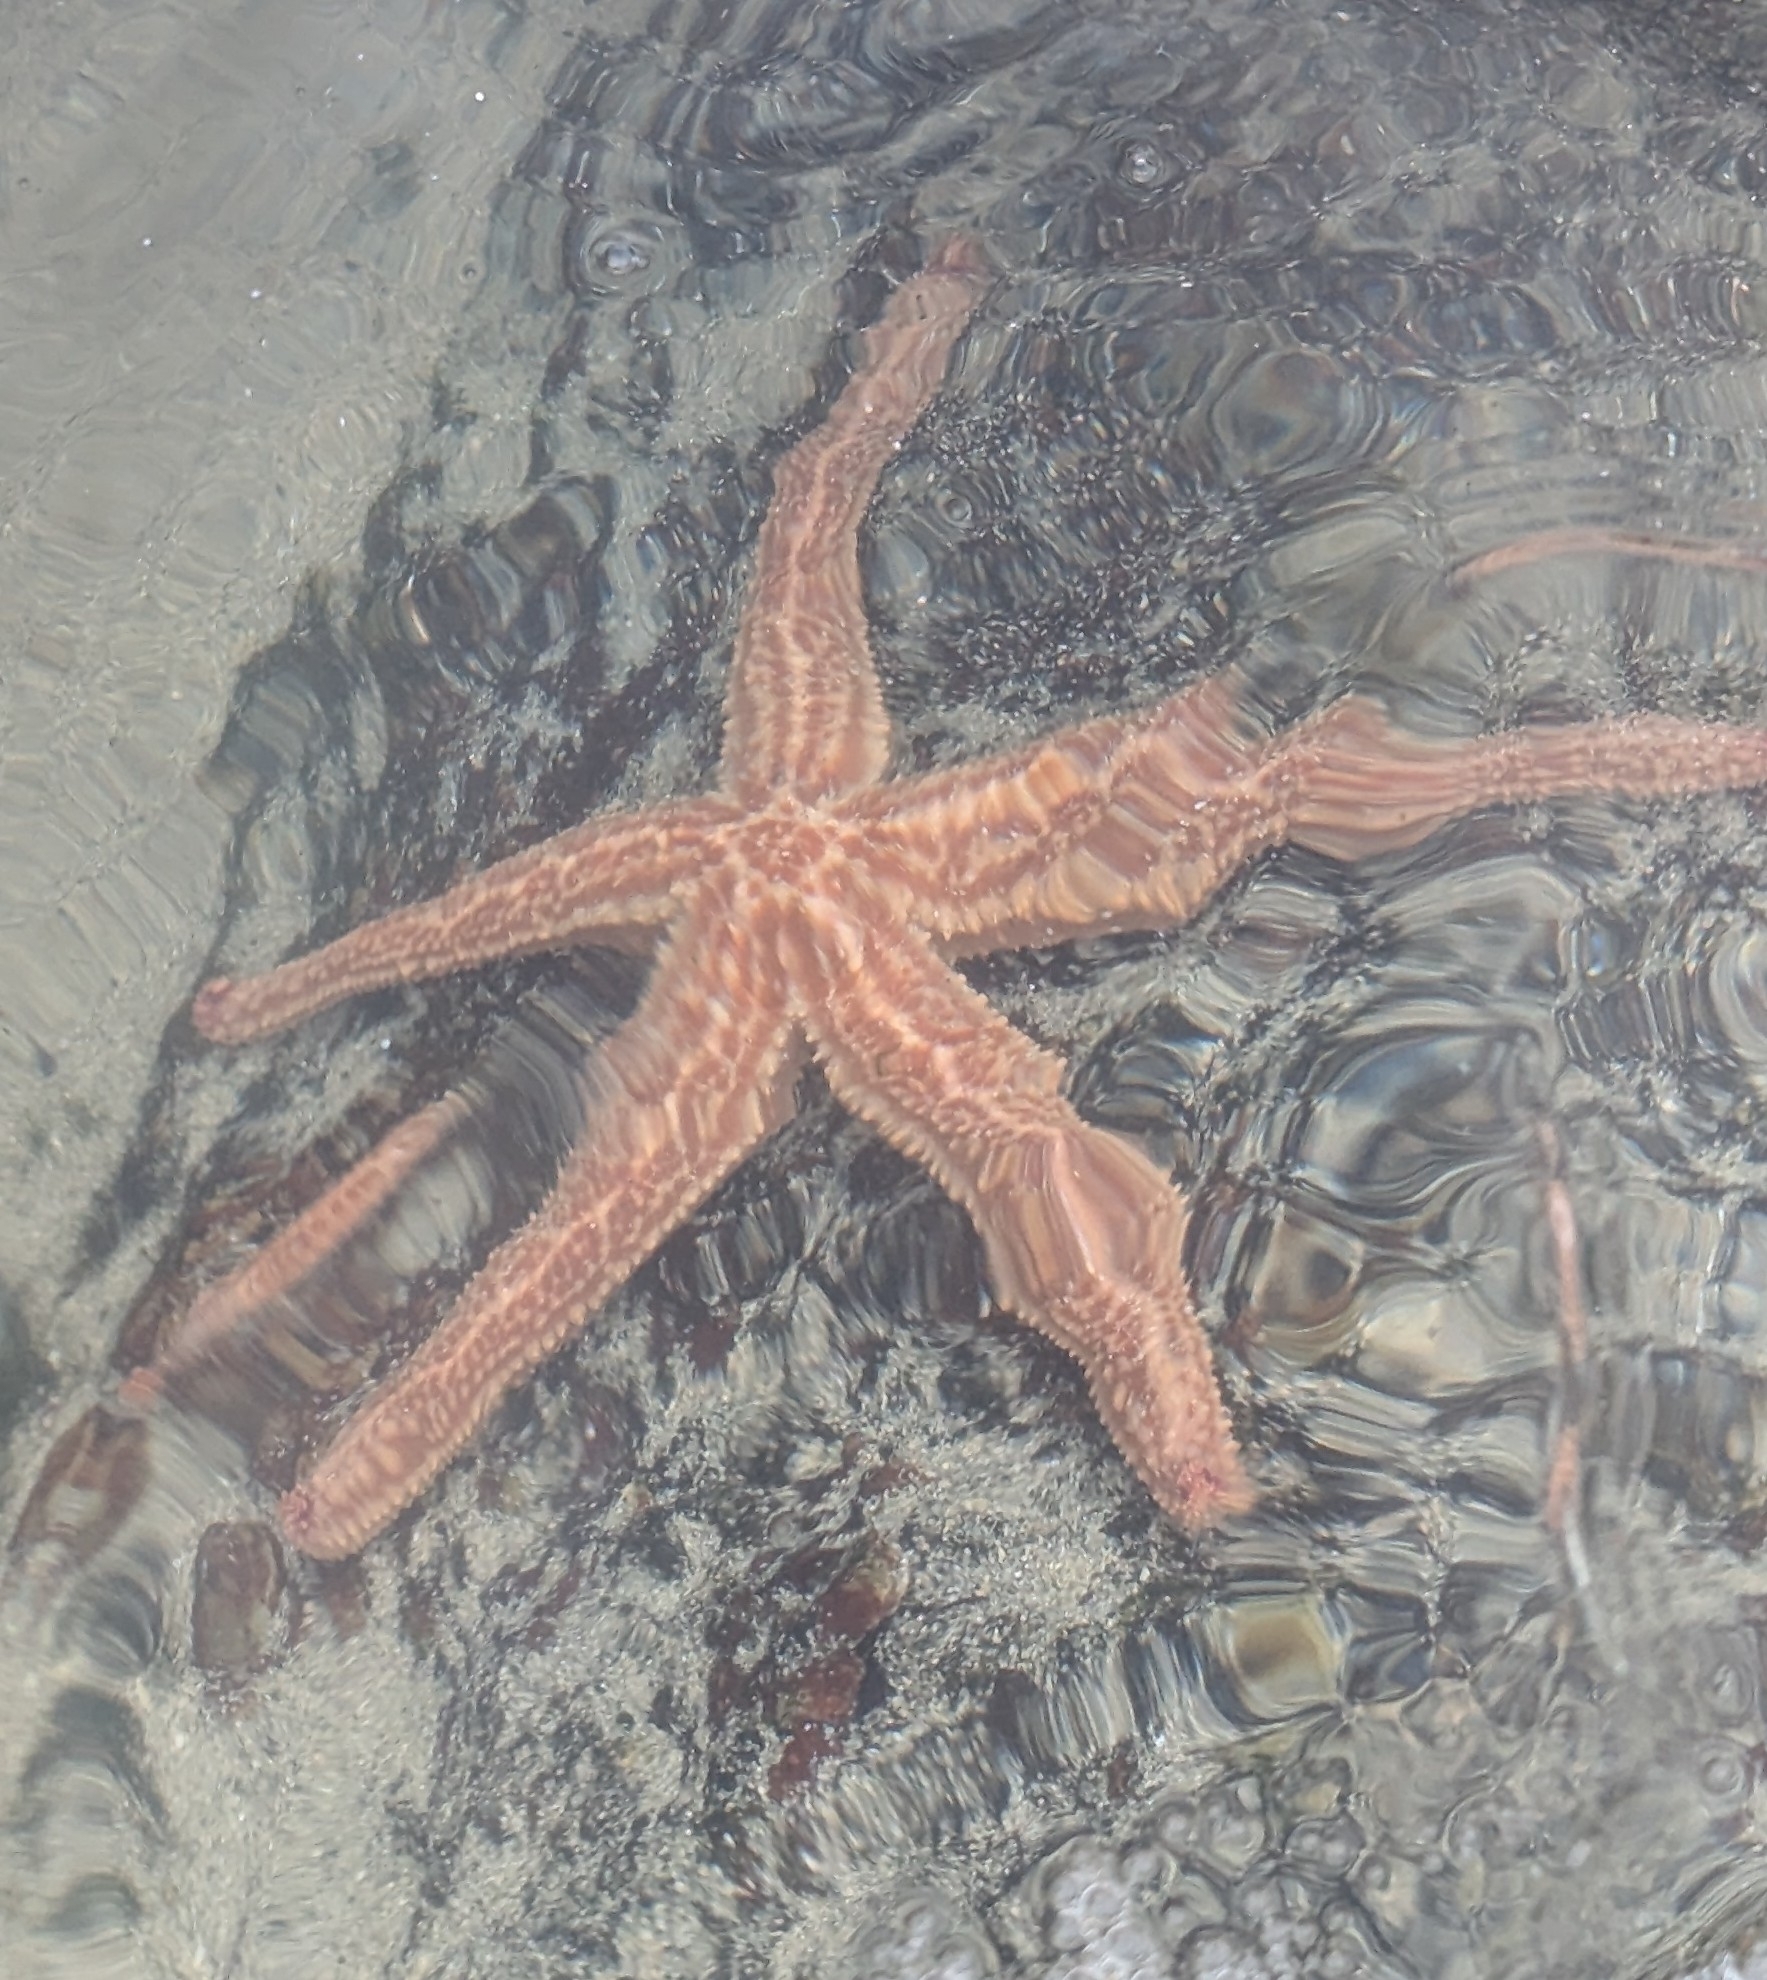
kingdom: Animalia
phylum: Echinodermata
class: Asteroidea
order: Forcipulatida
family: Asteriidae
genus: Marthasterias
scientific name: Marthasterias africana
